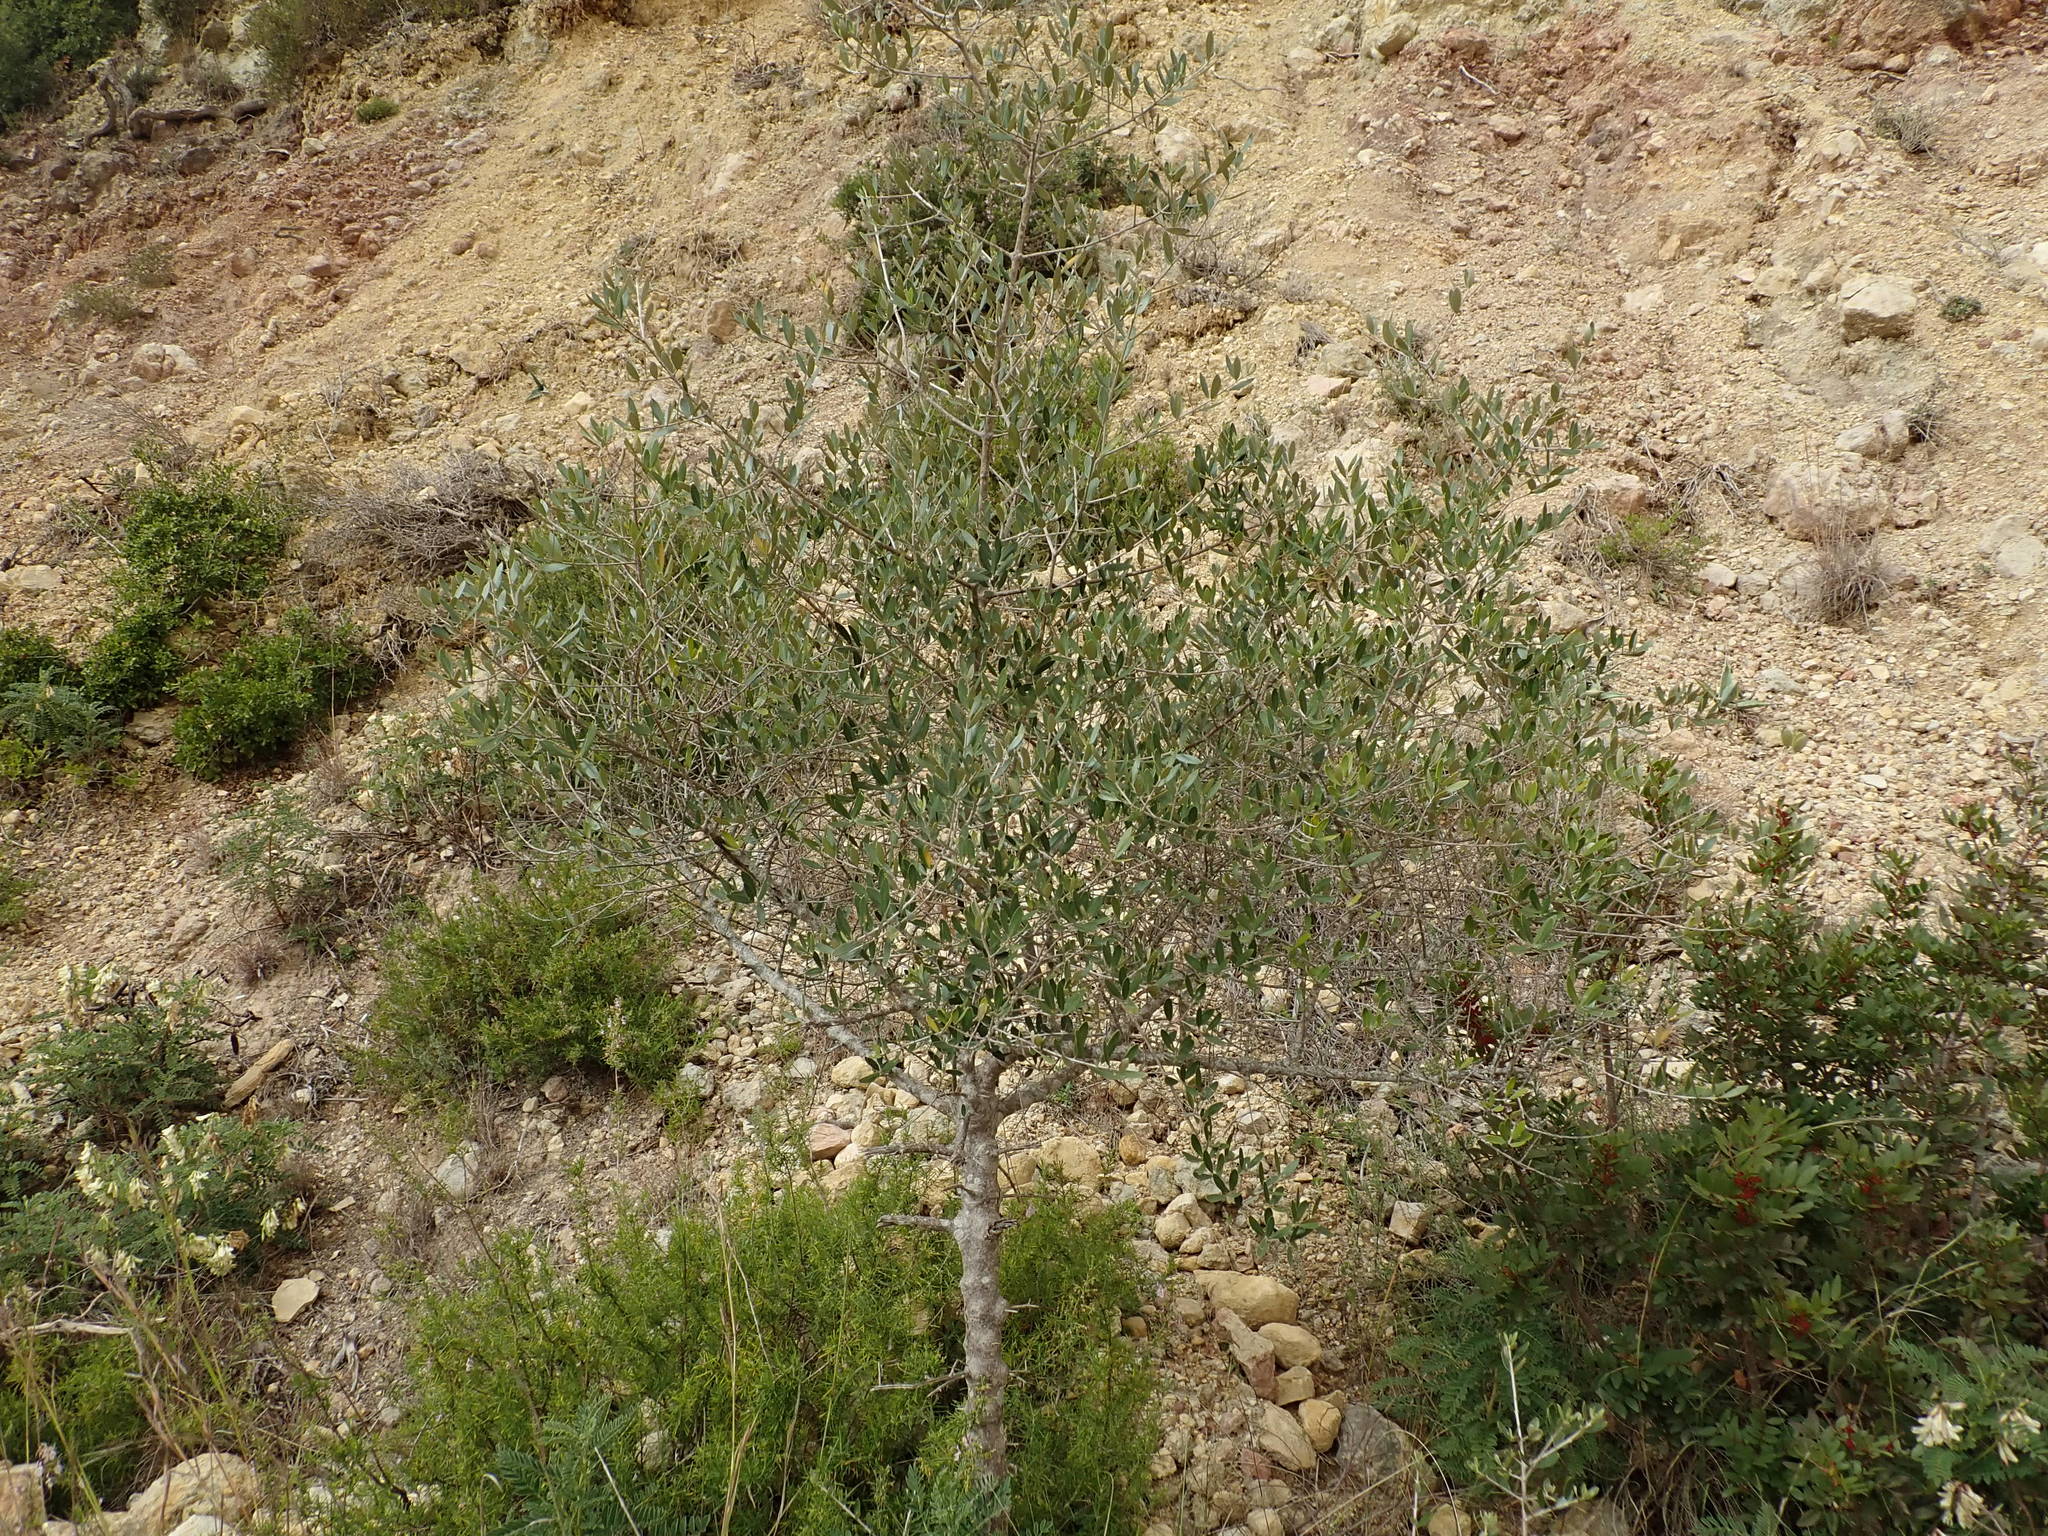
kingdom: Plantae
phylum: Tracheophyta
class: Magnoliopsida
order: Lamiales
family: Oleaceae
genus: Olea
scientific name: Olea europaea
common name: Olive
